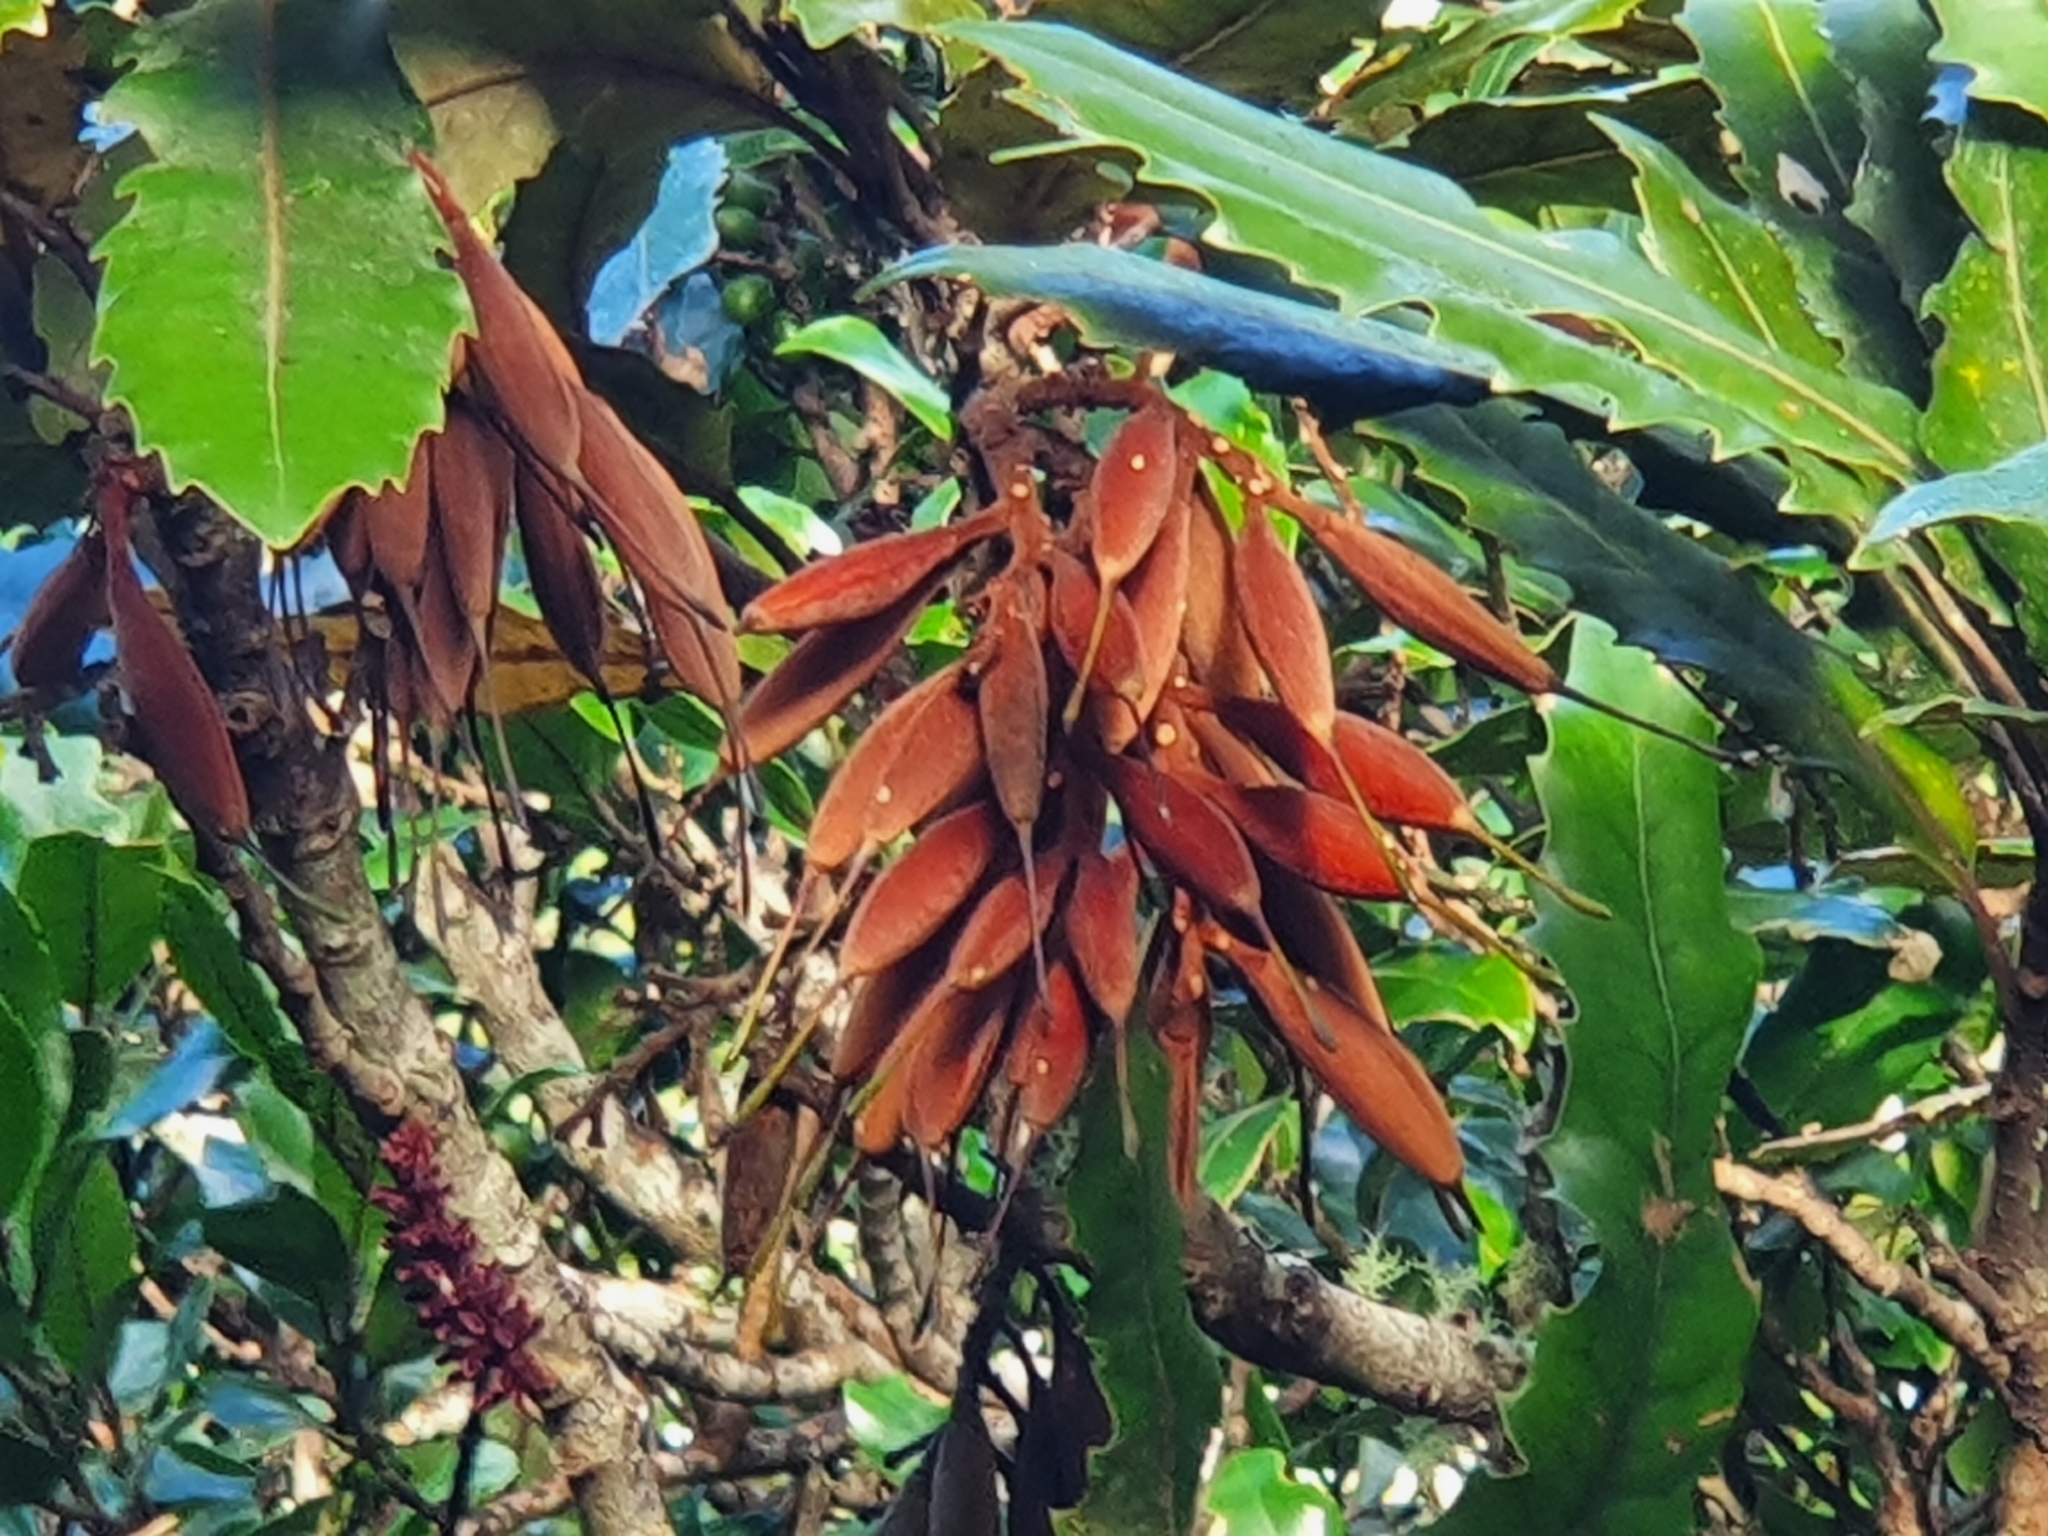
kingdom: Plantae
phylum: Tracheophyta
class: Magnoliopsida
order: Proteales
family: Proteaceae
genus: Knightia
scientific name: Knightia excelsa
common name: New zealand-honeysuckle
